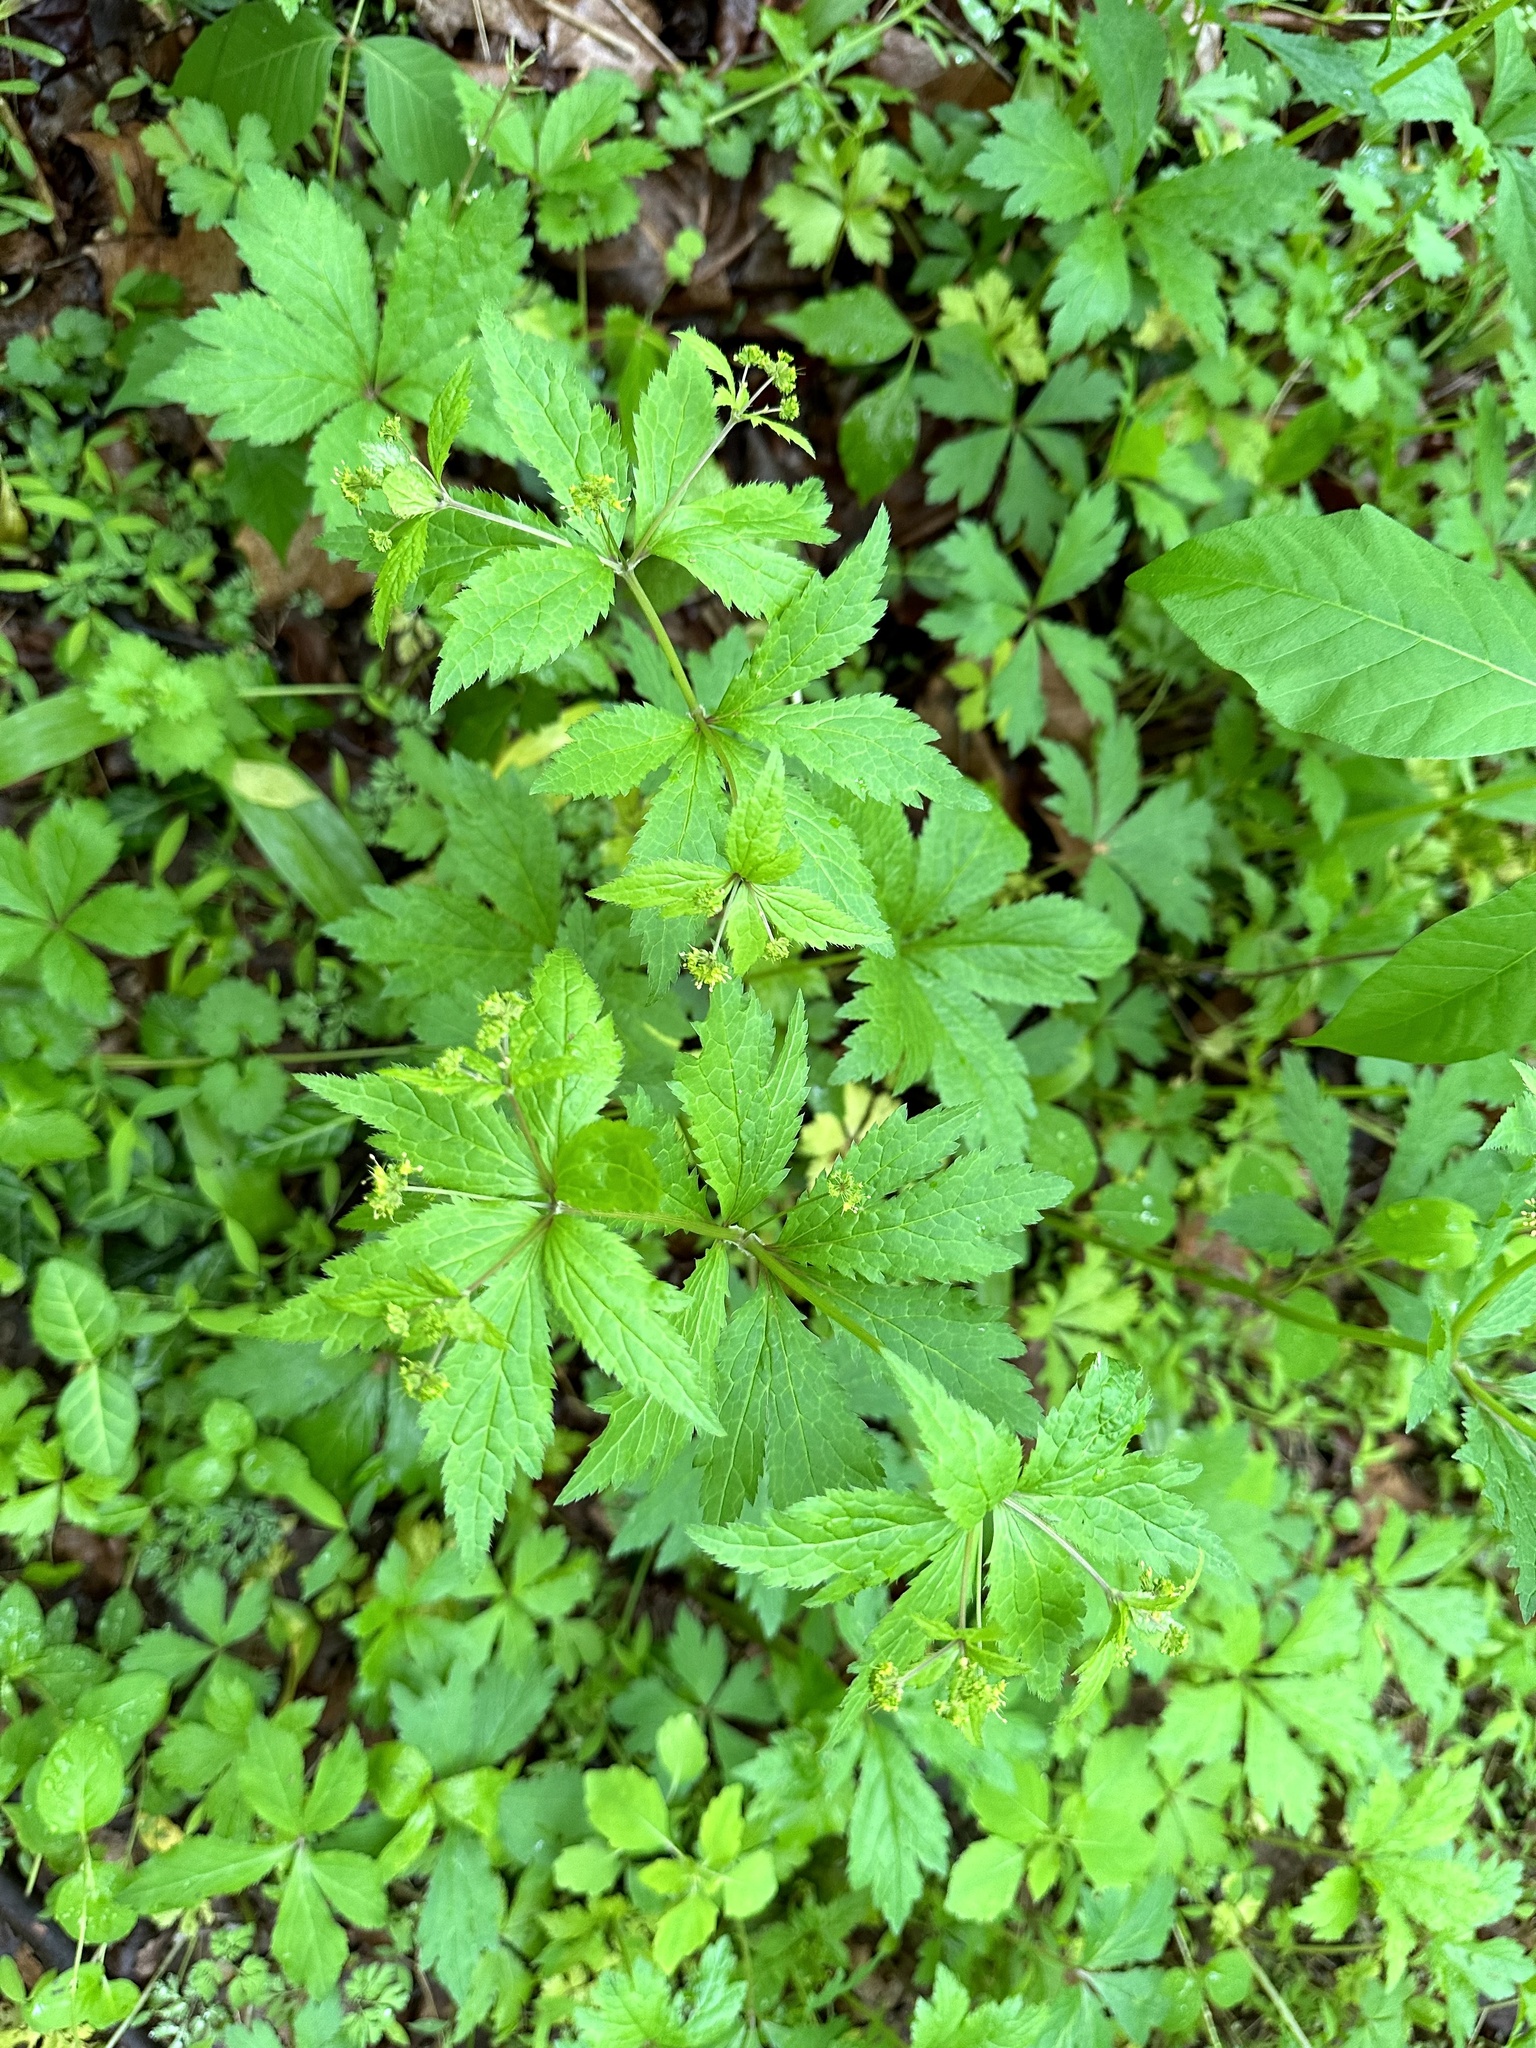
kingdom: Plantae
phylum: Tracheophyta
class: Magnoliopsida
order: Apiales
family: Apiaceae
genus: Sanicula
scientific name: Sanicula odorata
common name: Cluster sanicle
